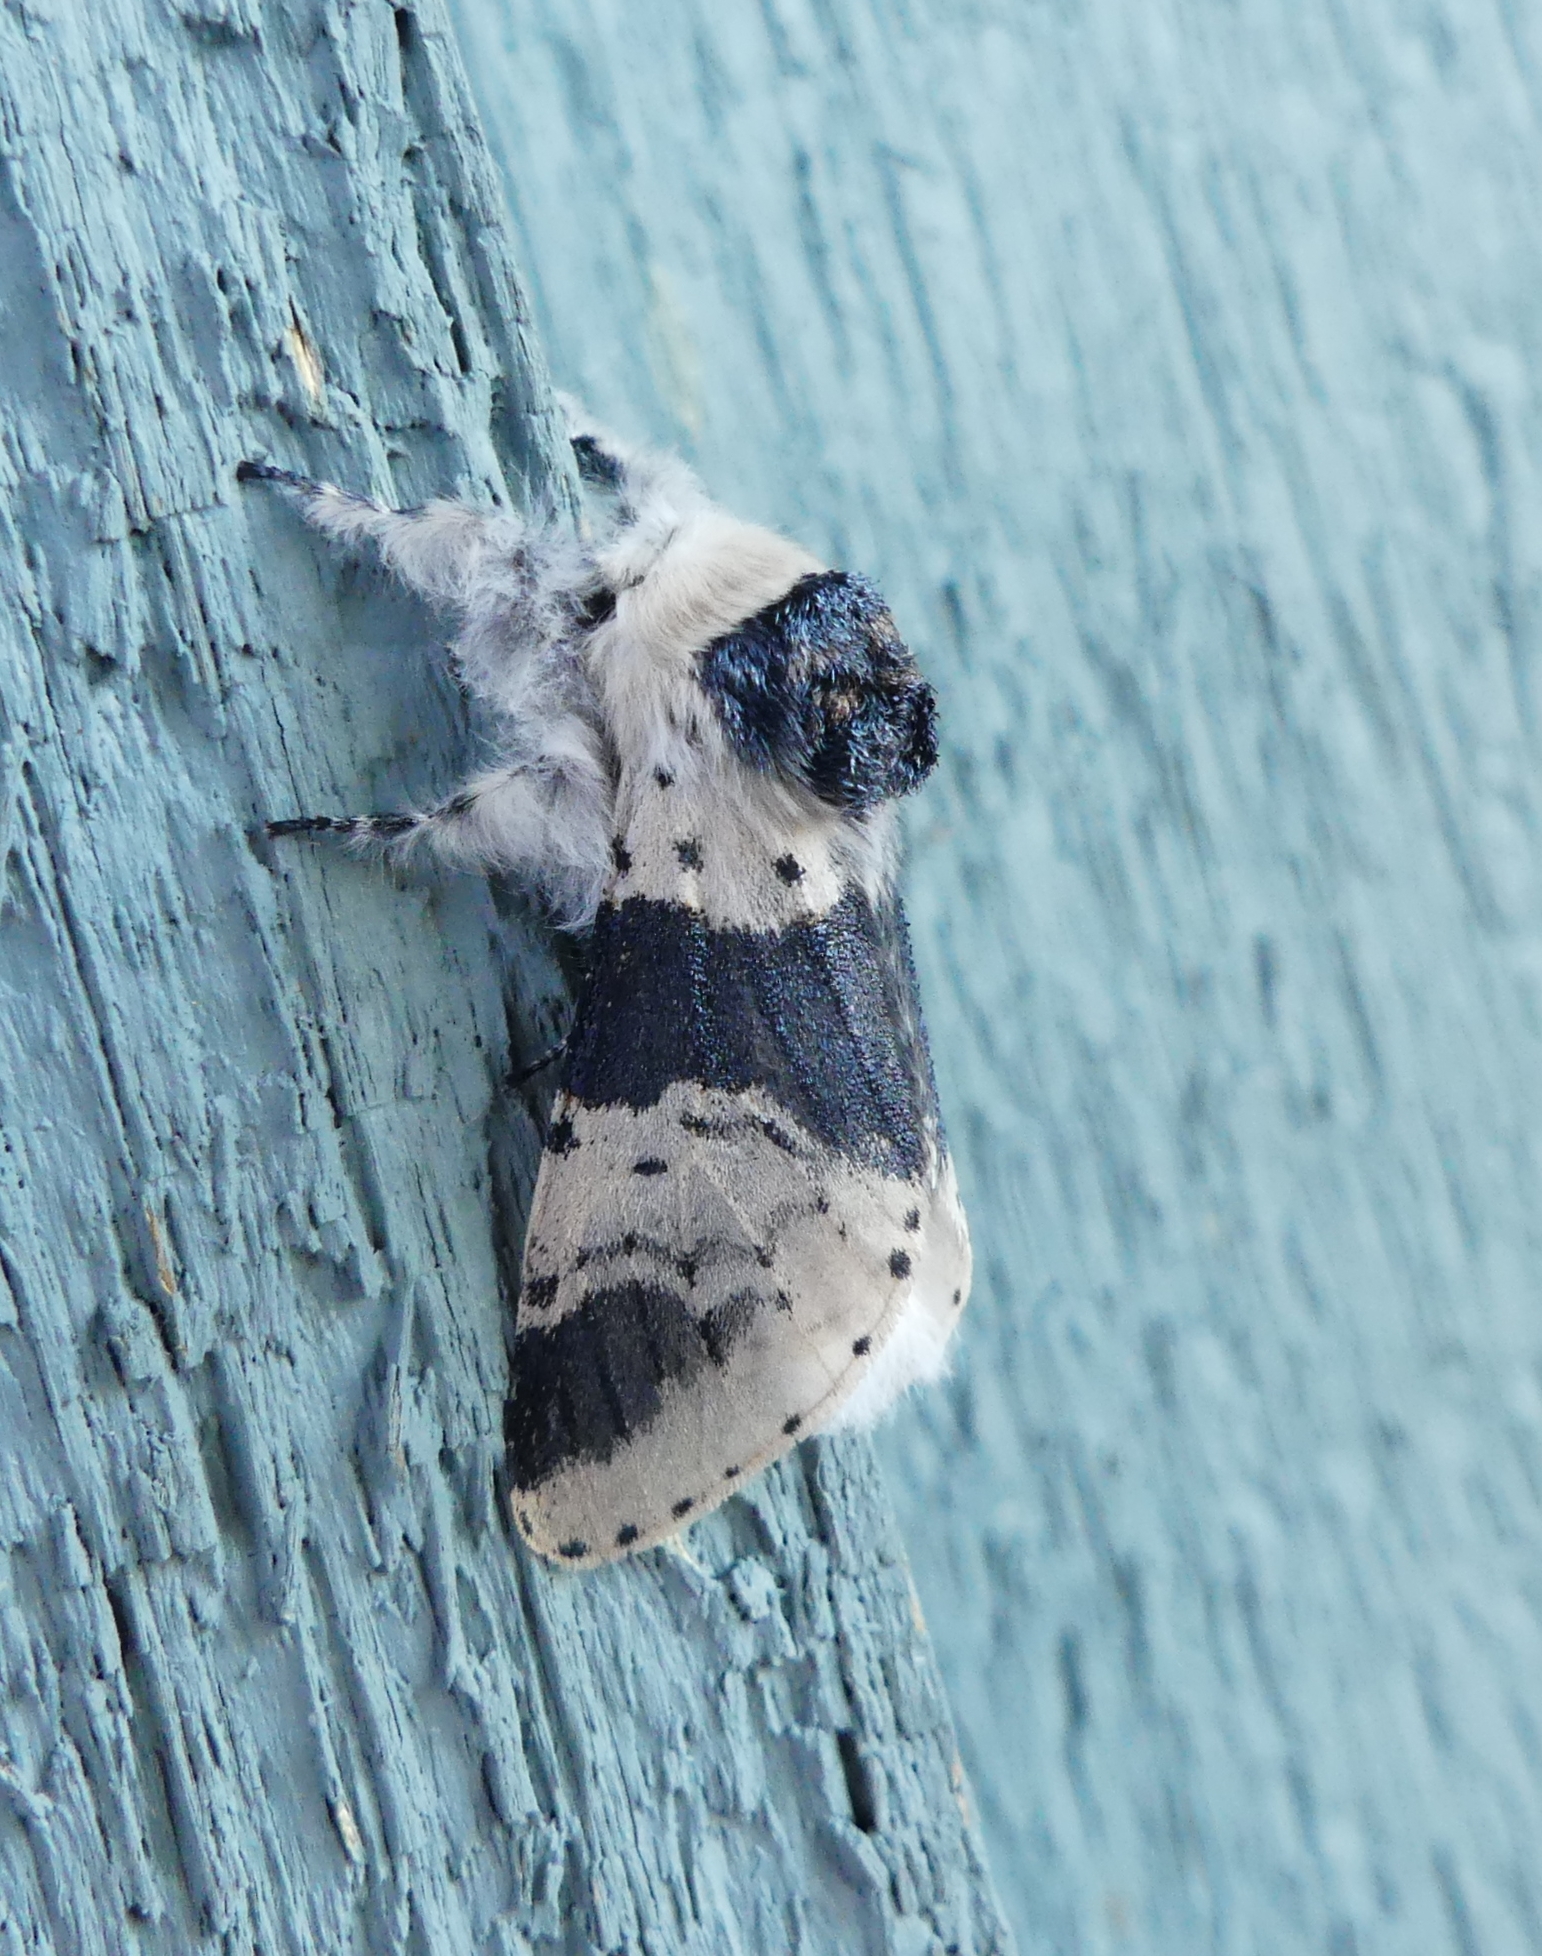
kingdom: Animalia
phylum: Arthropoda
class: Insecta
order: Lepidoptera
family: Notodontidae
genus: Furcula
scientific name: Furcula modesta
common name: Modest furcula moth
